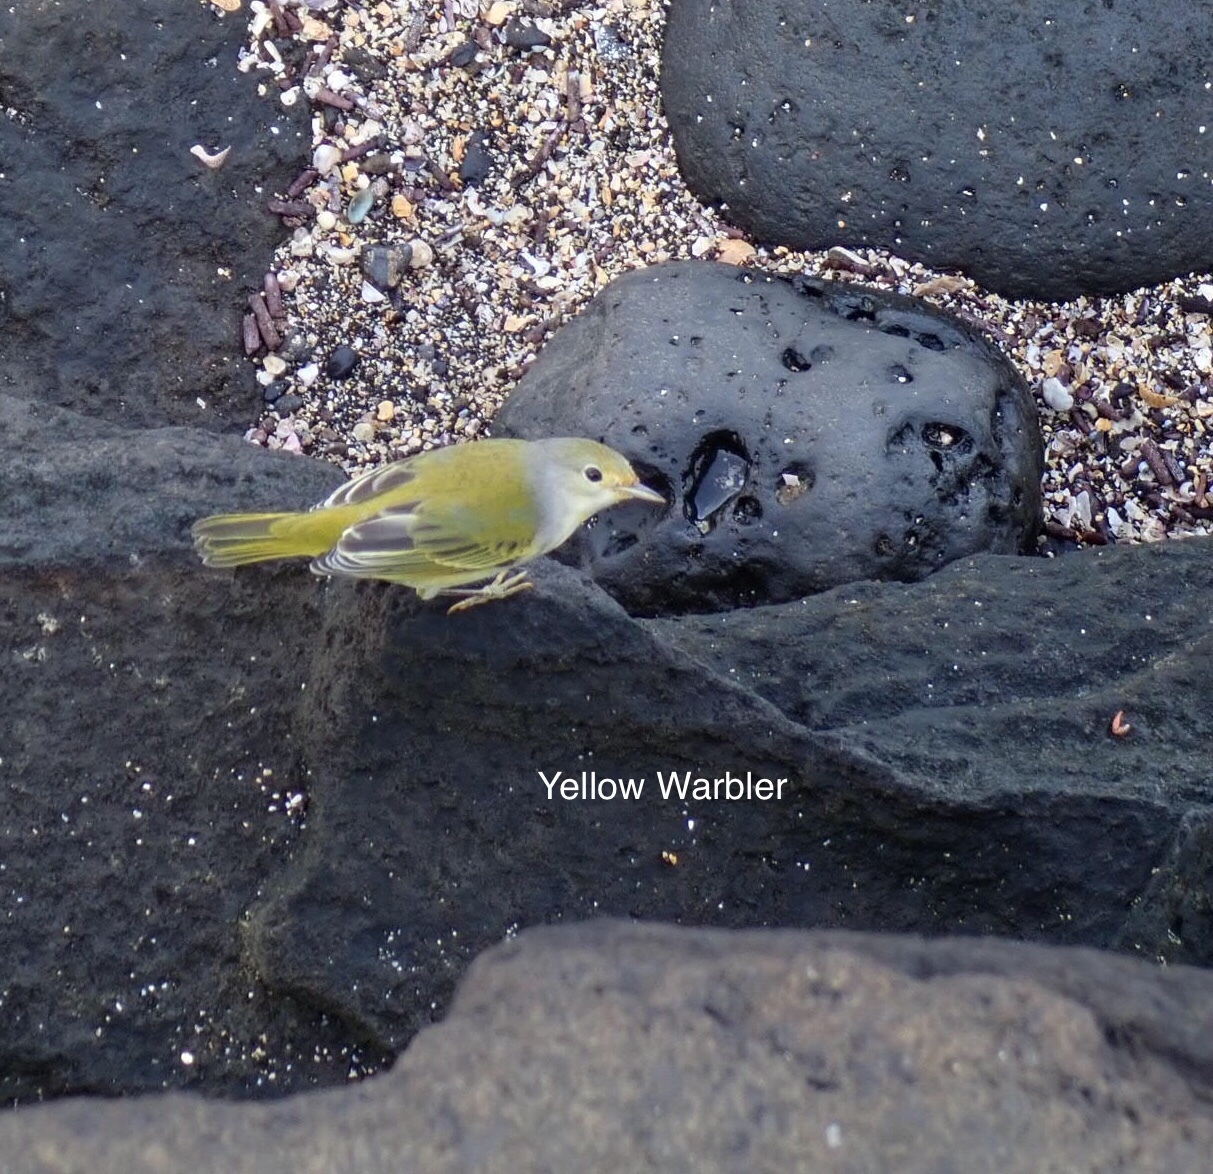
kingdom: Animalia
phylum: Chordata
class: Aves
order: Passeriformes
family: Parulidae
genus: Setophaga
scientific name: Setophaga petechia
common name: Yellow warbler
